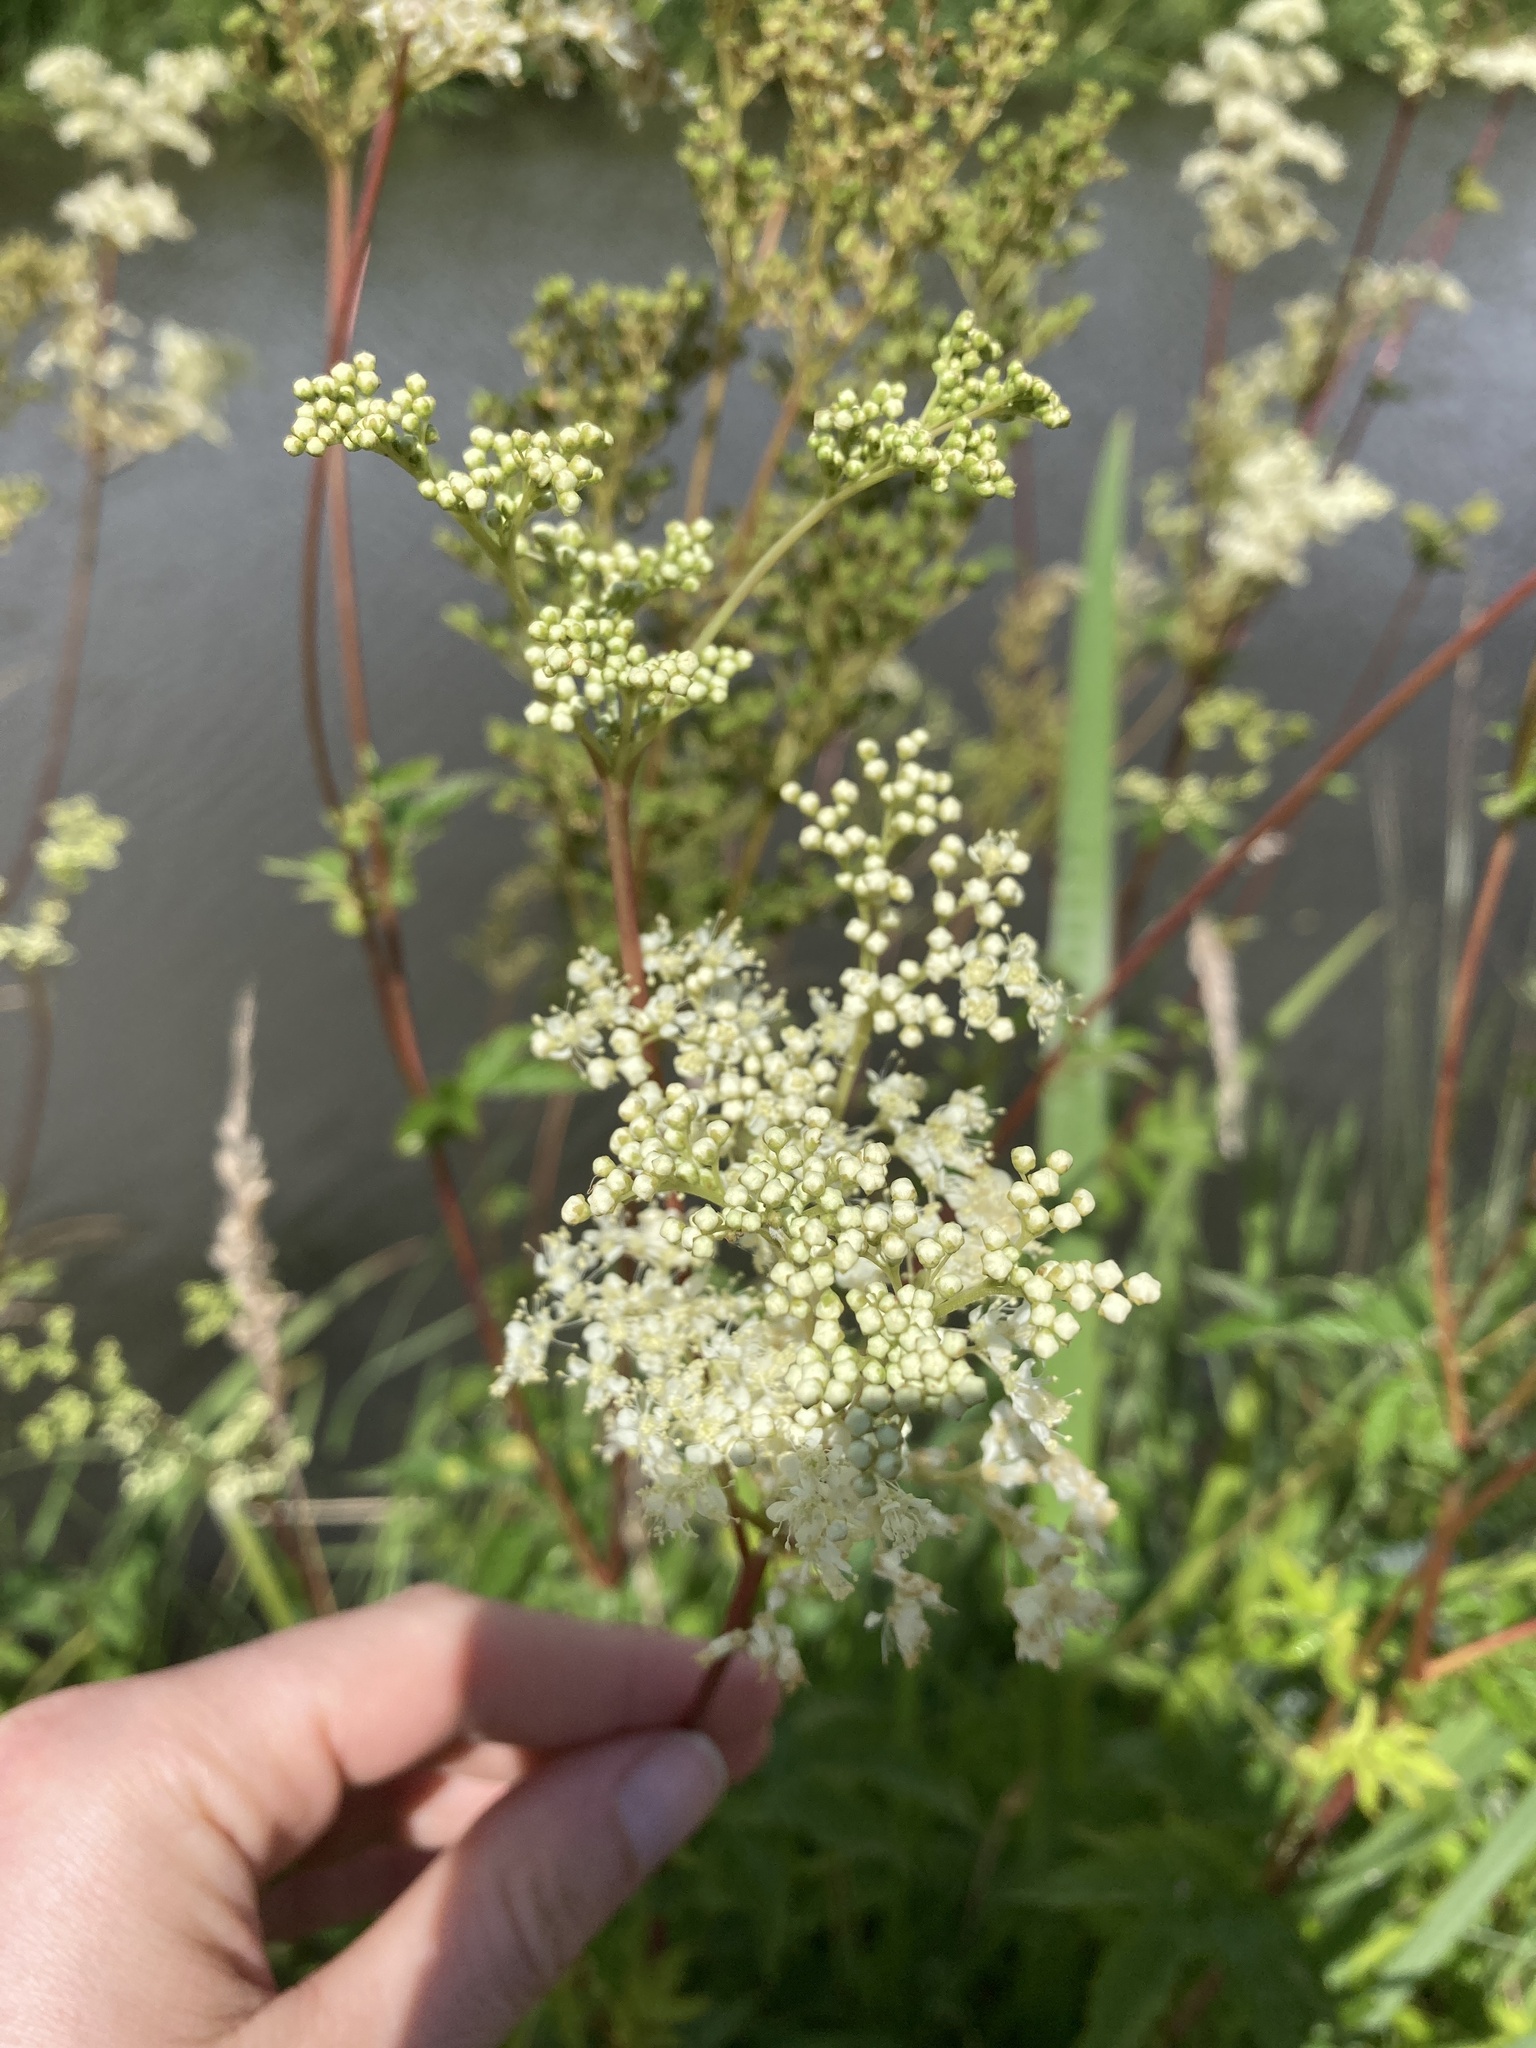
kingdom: Plantae
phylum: Tracheophyta
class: Magnoliopsida
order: Rosales
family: Rosaceae
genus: Filipendula
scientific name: Filipendula ulmaria
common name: Meadowsweet
